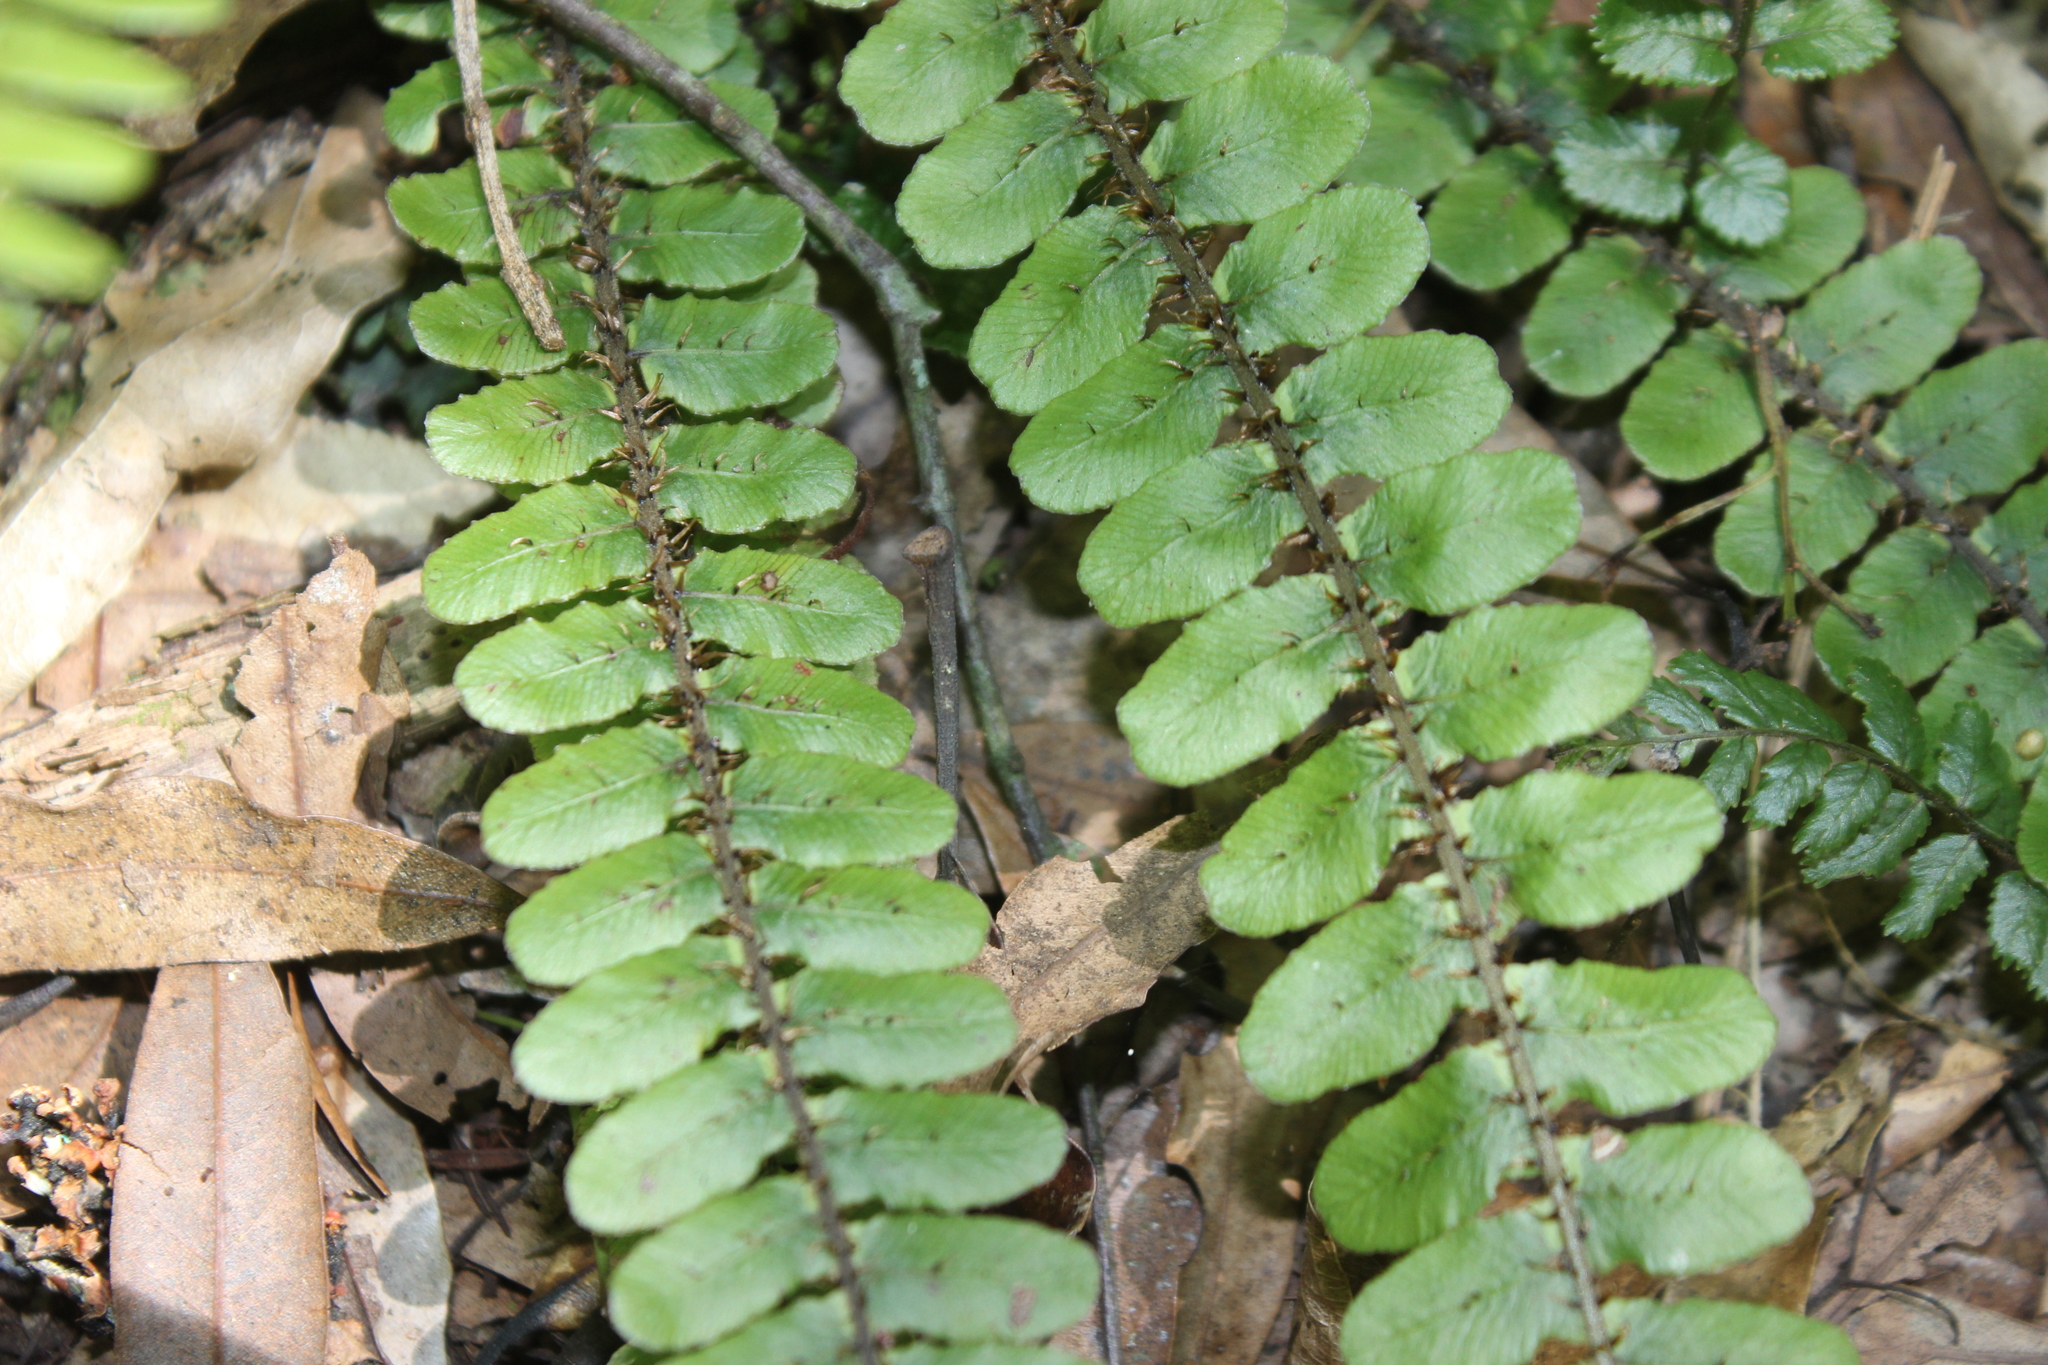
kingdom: Plantae
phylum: Tracheophyta
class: Polypodiopsida
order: Polypodiales
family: Blechnaceae
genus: Cranfillia
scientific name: Cranfillia fluviatilis
